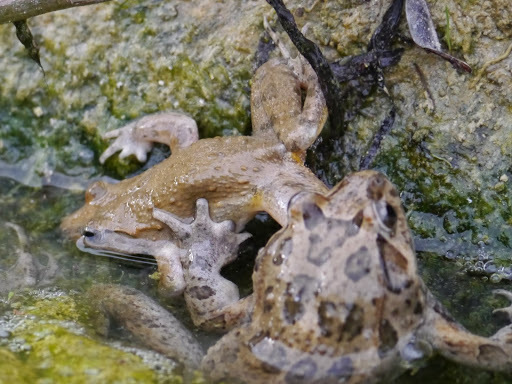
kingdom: Animalia
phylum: Chordata
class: Amphibia
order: Anura
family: Alytidae
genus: Discoglossus
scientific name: Discoglossus pictus
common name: Painted frog
